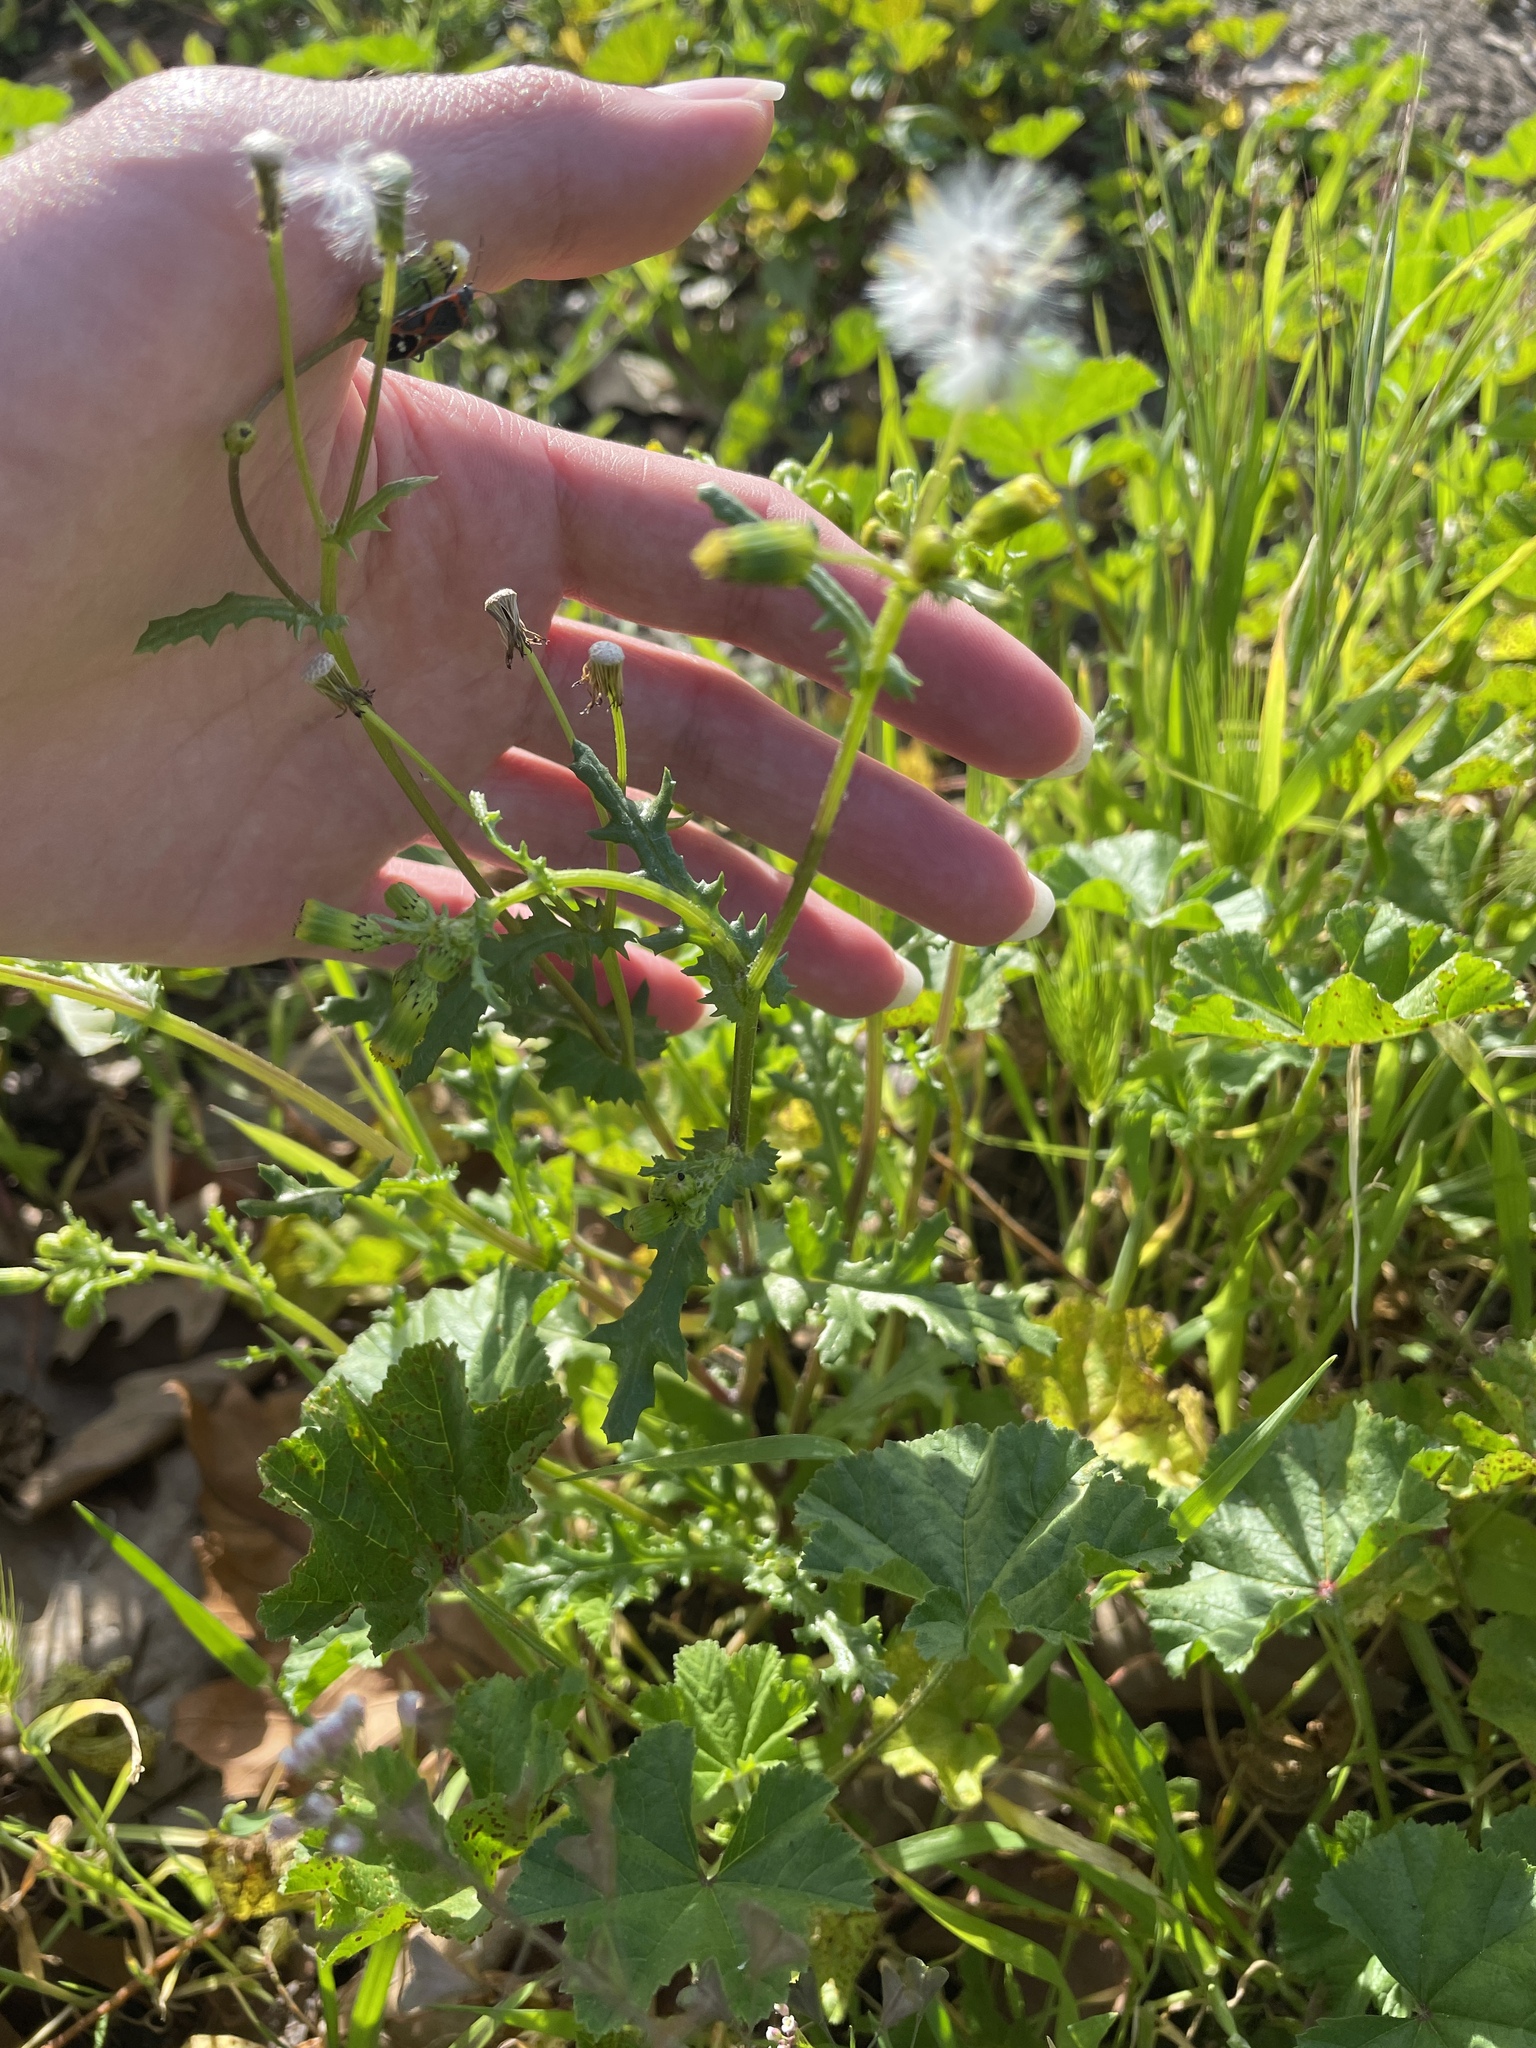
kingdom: Plantae
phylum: Tracheophyta
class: Magnoliopsida
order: Asterales
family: Asteraceae
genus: Senecio
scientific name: Senecio vulgaris
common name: Old-man-in-the-spring
